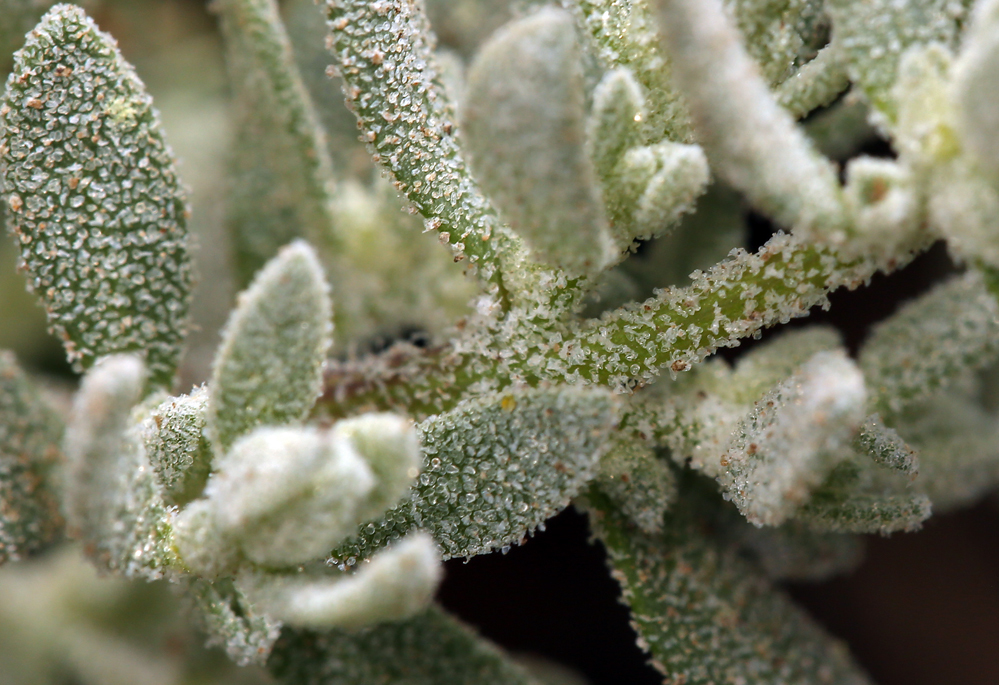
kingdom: Plantae
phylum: Tracheophyta
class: Magnoliopsida
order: Caryophyllales
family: Amaranthaceae
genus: Extriplex
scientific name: Extriplex californica
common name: California saltbush
